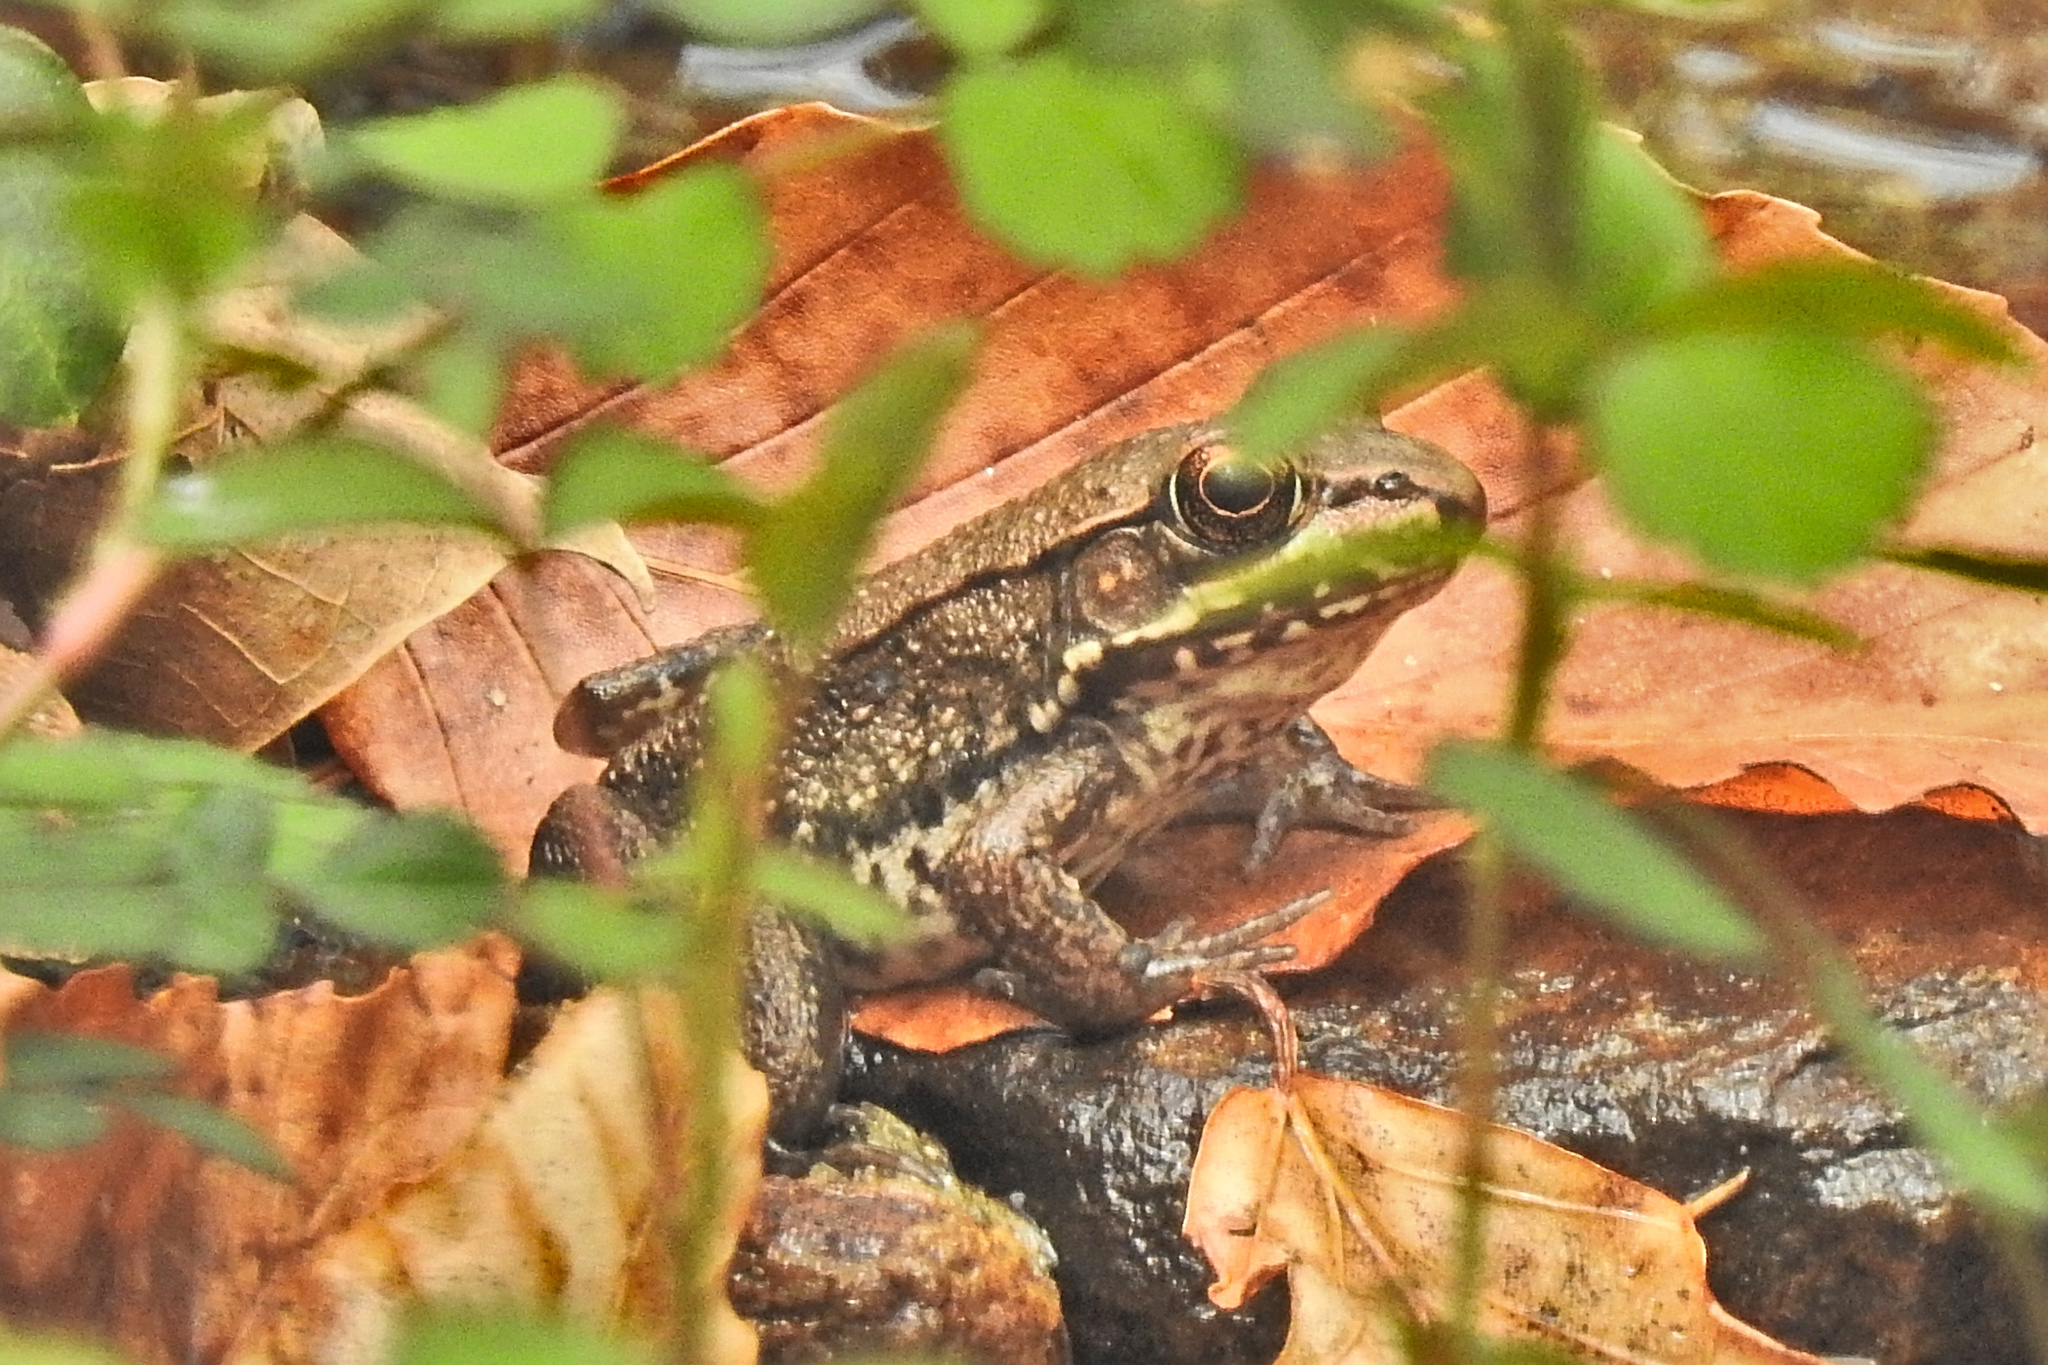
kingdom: Animalia
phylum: Chordata
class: Amphibia
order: Anura
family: Ranidae
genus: Lithobates
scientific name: Lithobates clamitans
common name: Green frog
